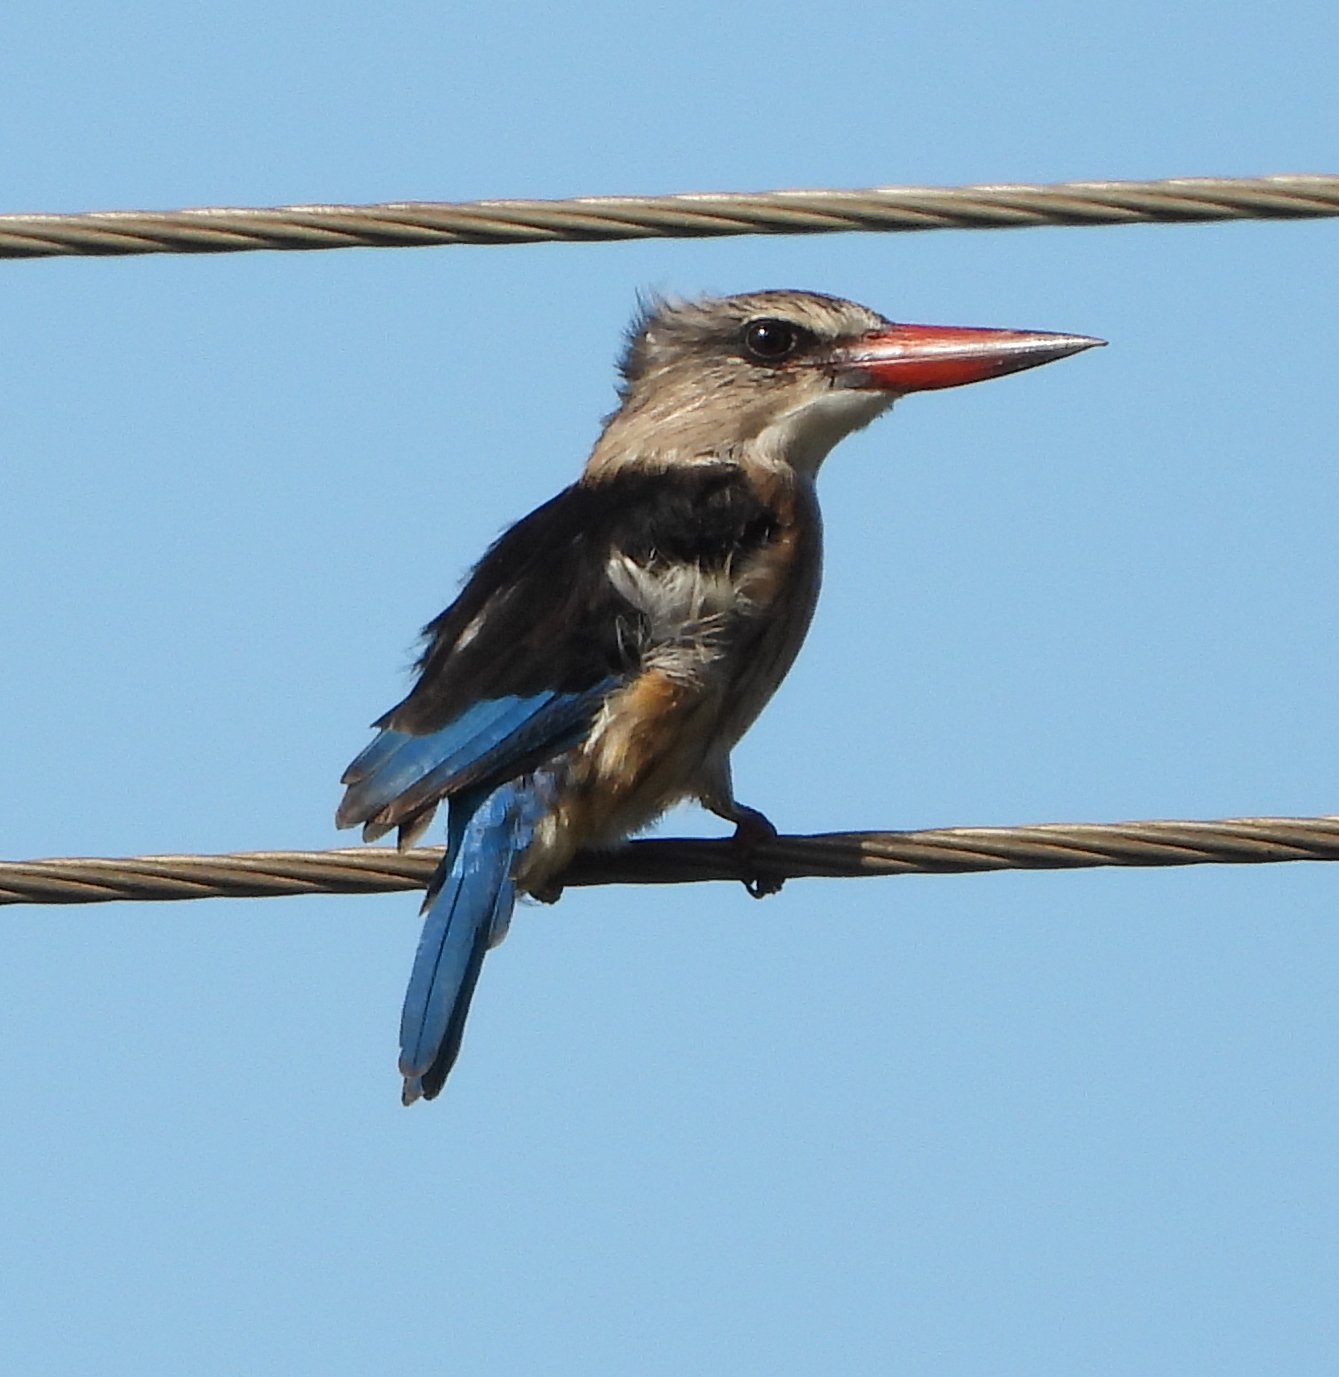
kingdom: Animalia
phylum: Chordata
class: Aves
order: Coraciiformes
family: Alcedinidae
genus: Halcyon
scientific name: Halcyon albiventris
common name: Brown-hooded kingfisher
